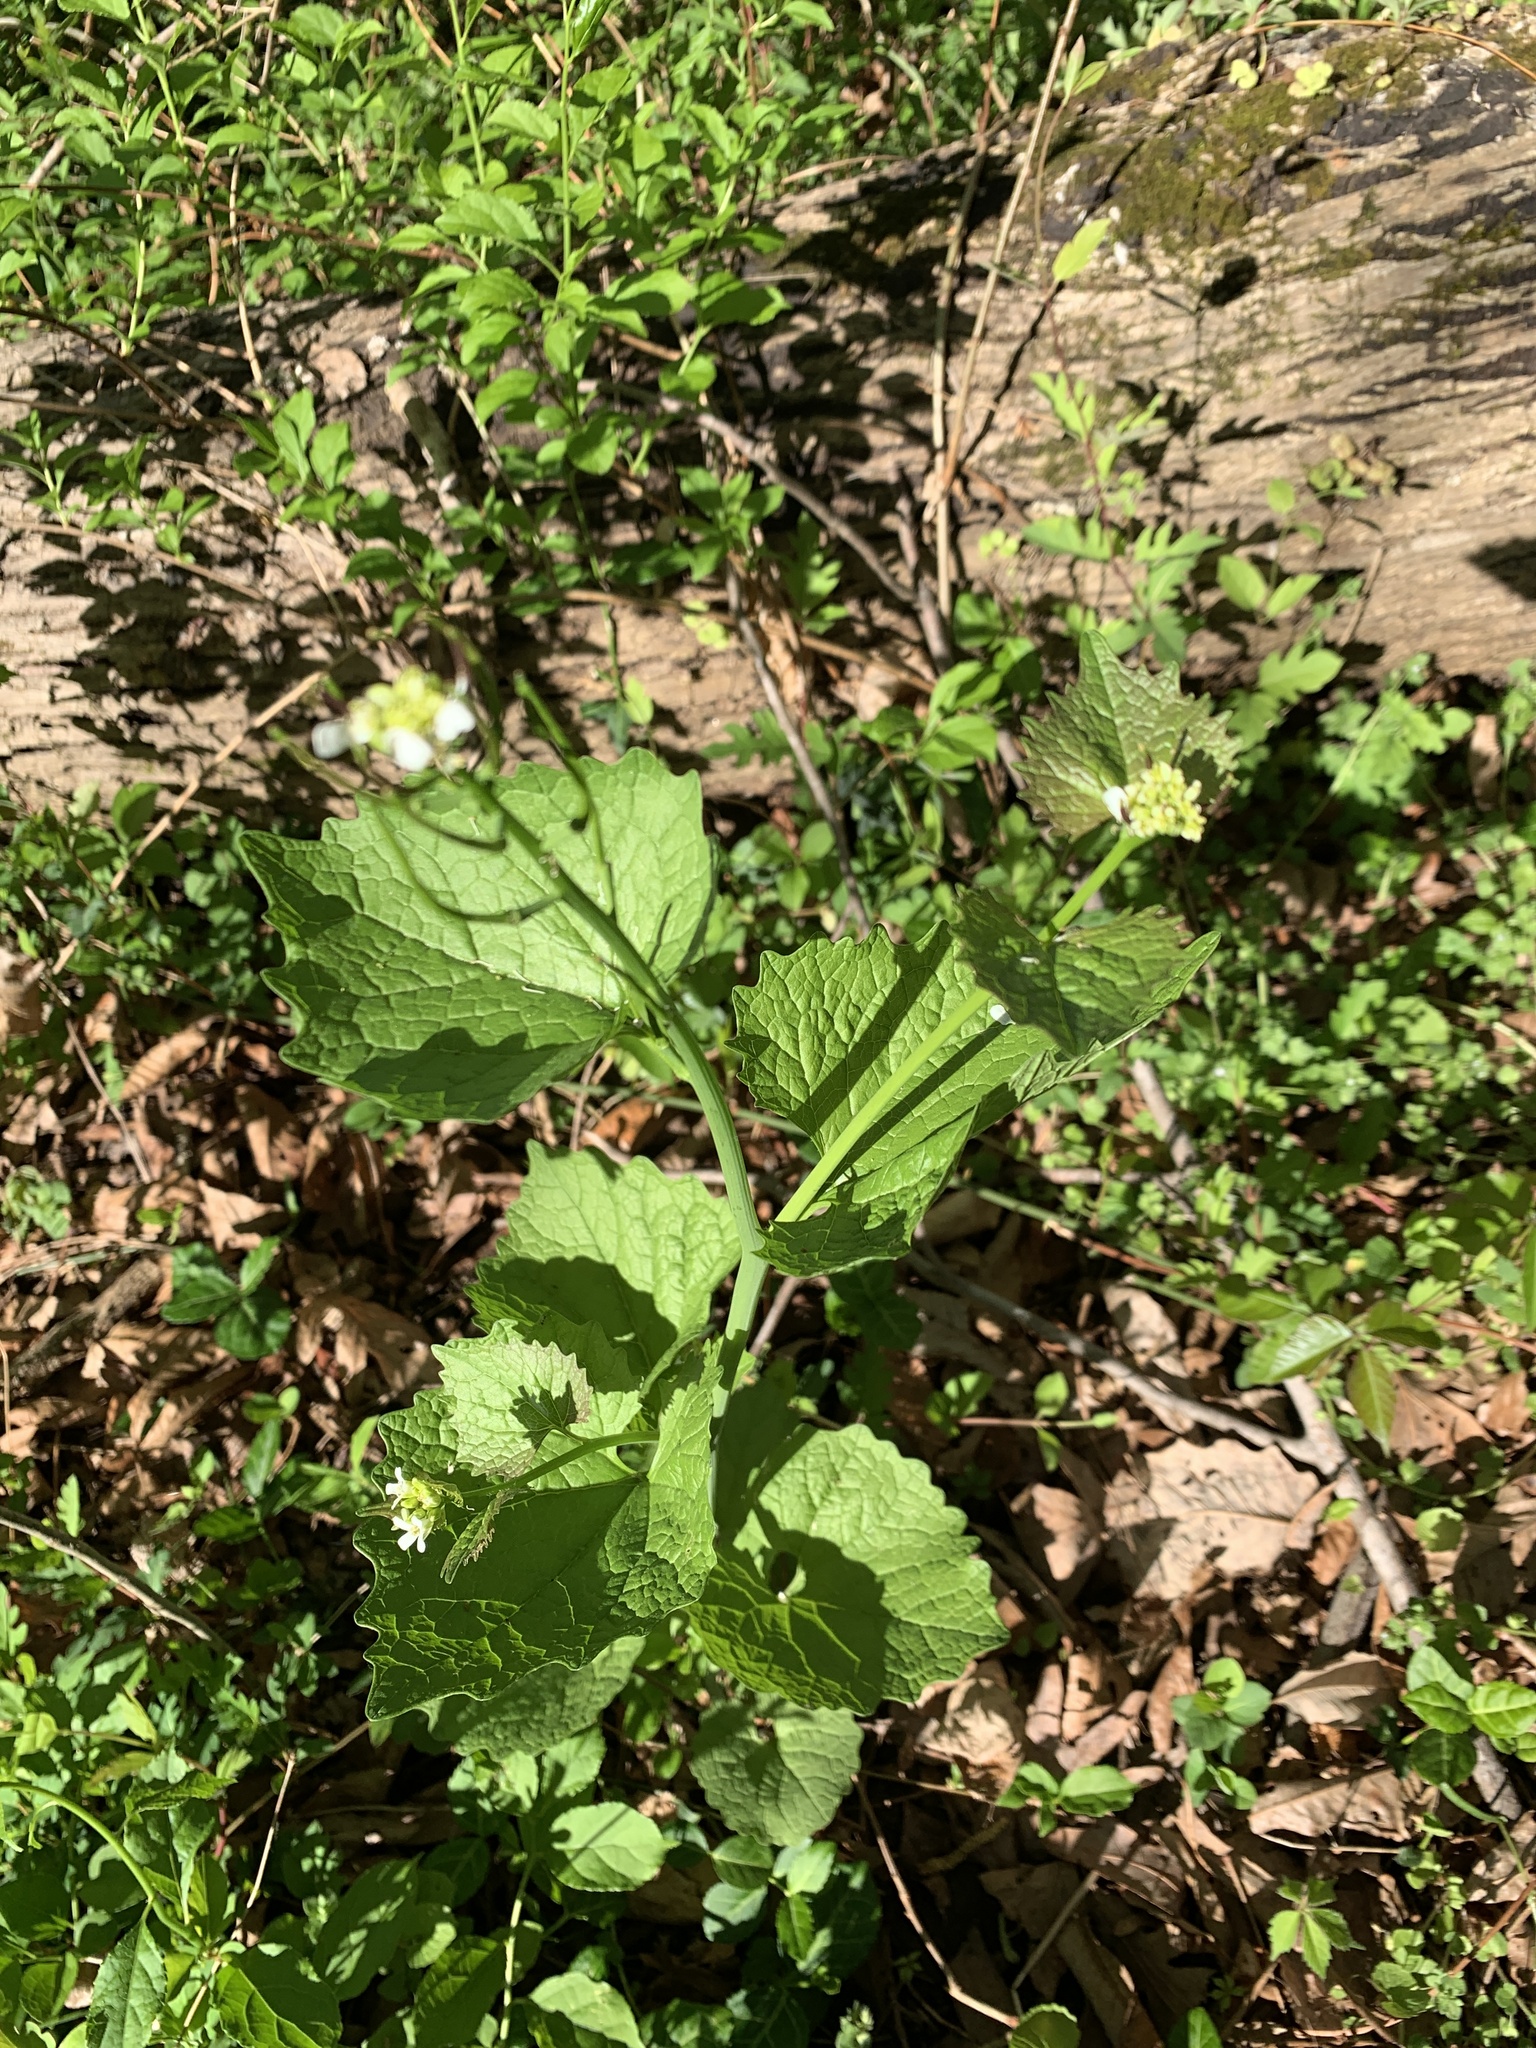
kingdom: Plantae
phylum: Tracheophyta
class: Magnoliopsida
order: Brassicales
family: Brassicaceae
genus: Alliaria
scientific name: Alliaria petiolata
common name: Garlic mustard
